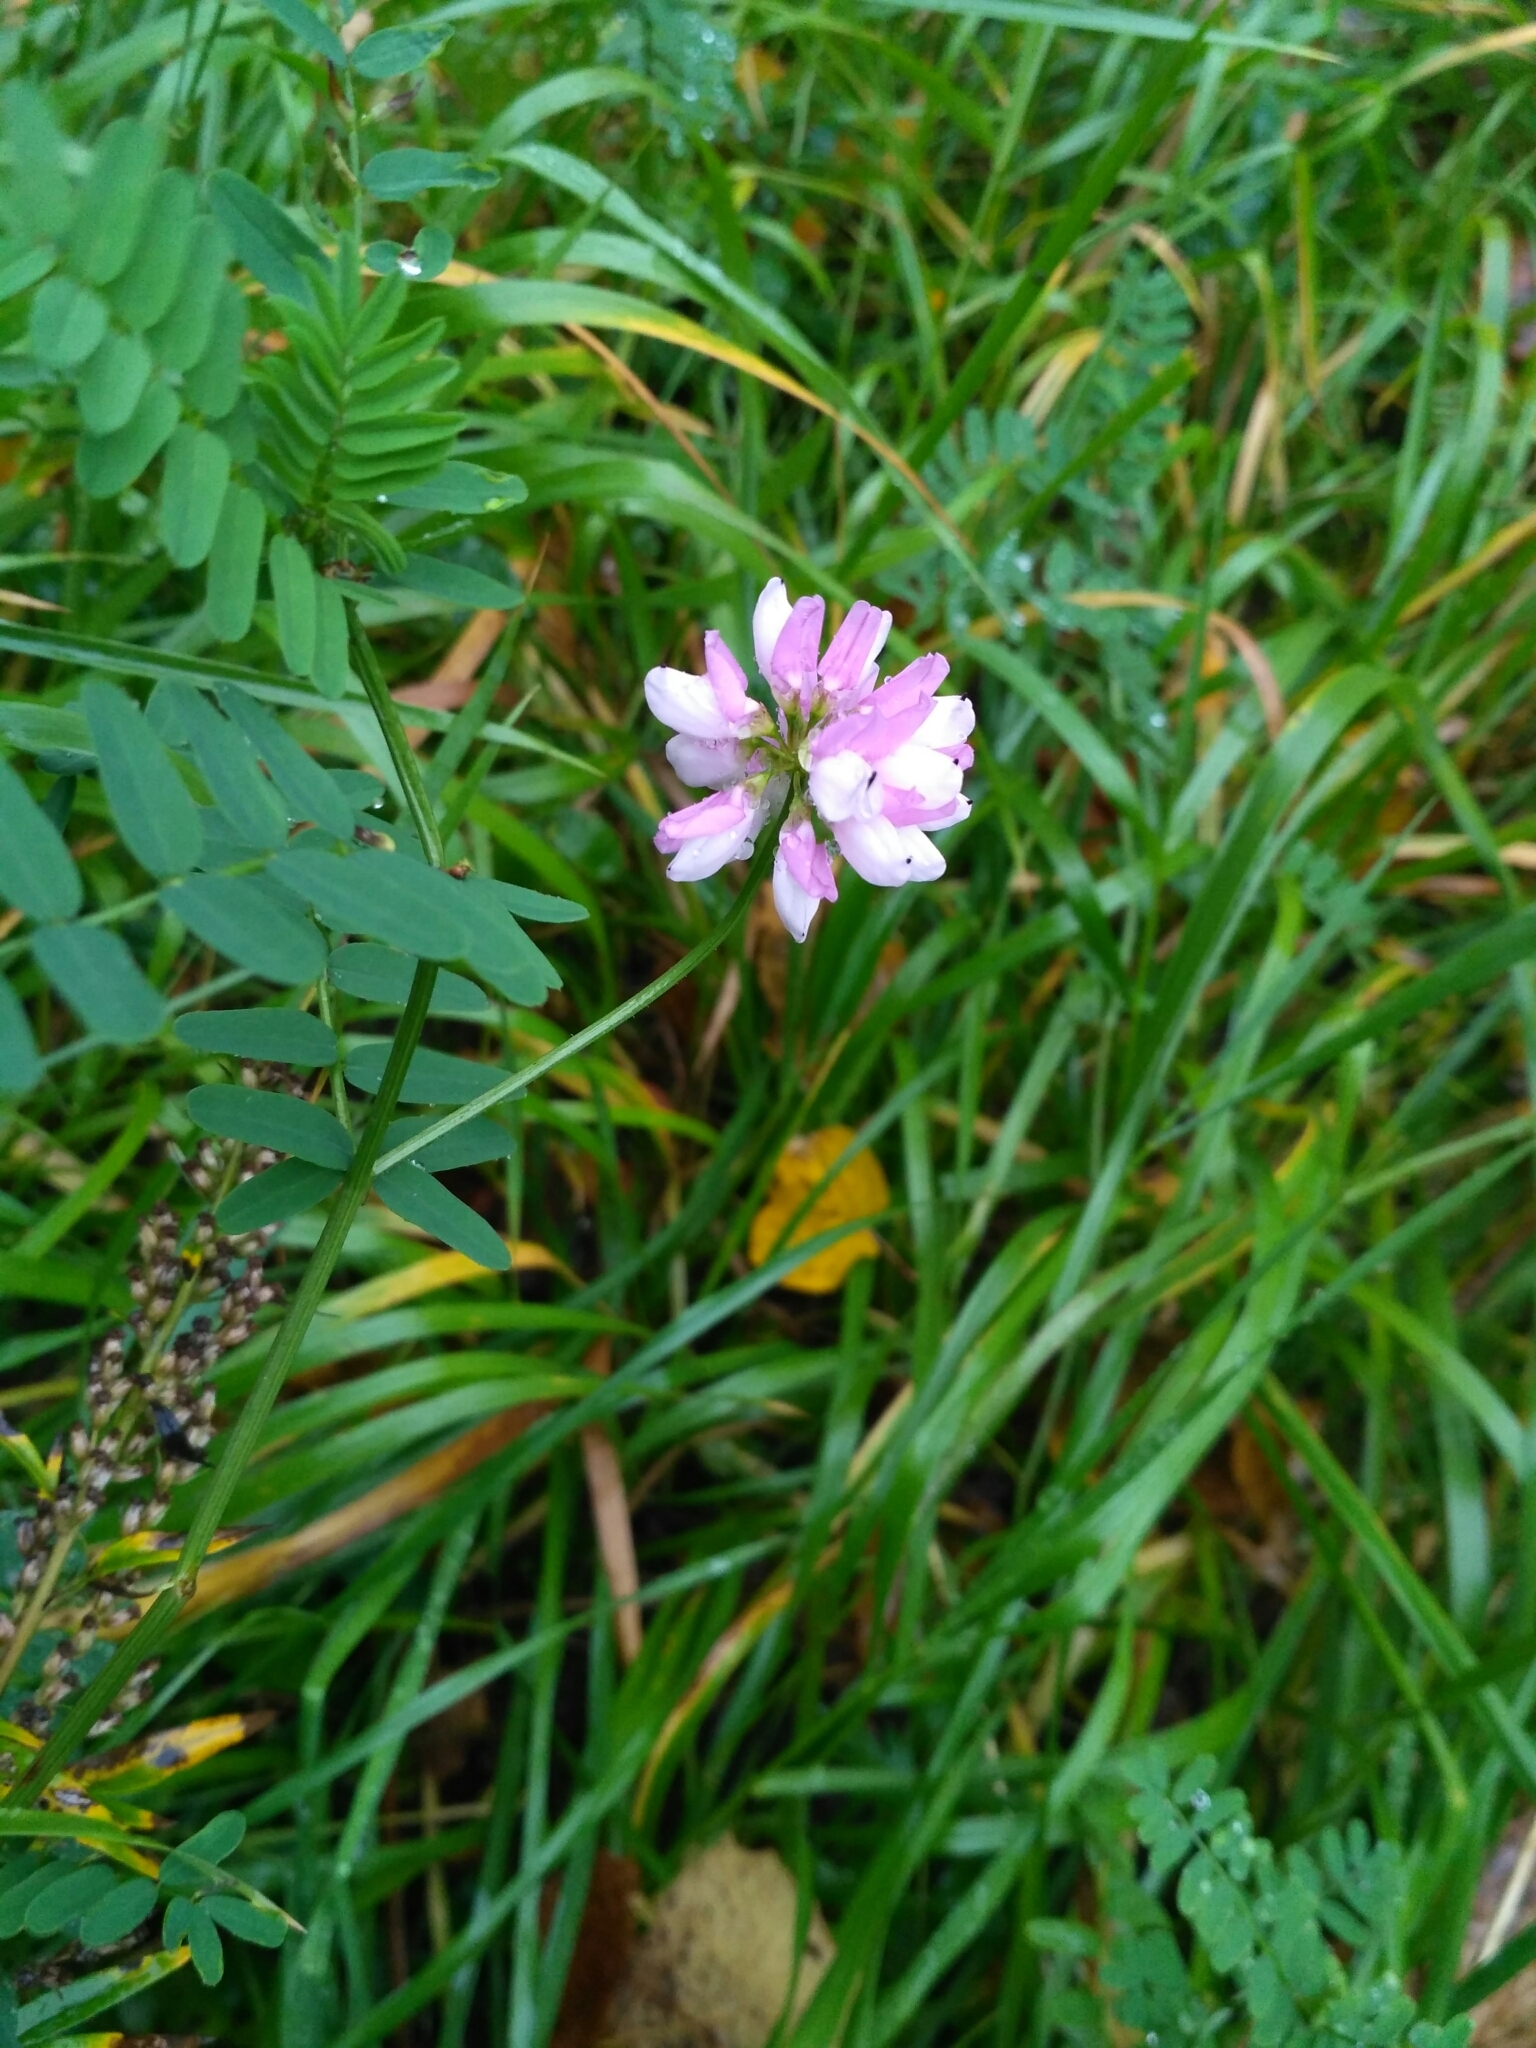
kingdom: Plantae
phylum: Tracheophyta
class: Magnoliopsida
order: Fabales
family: Fabaceae
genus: Coronilla
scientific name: Coronilla varia
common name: Crownvetch
